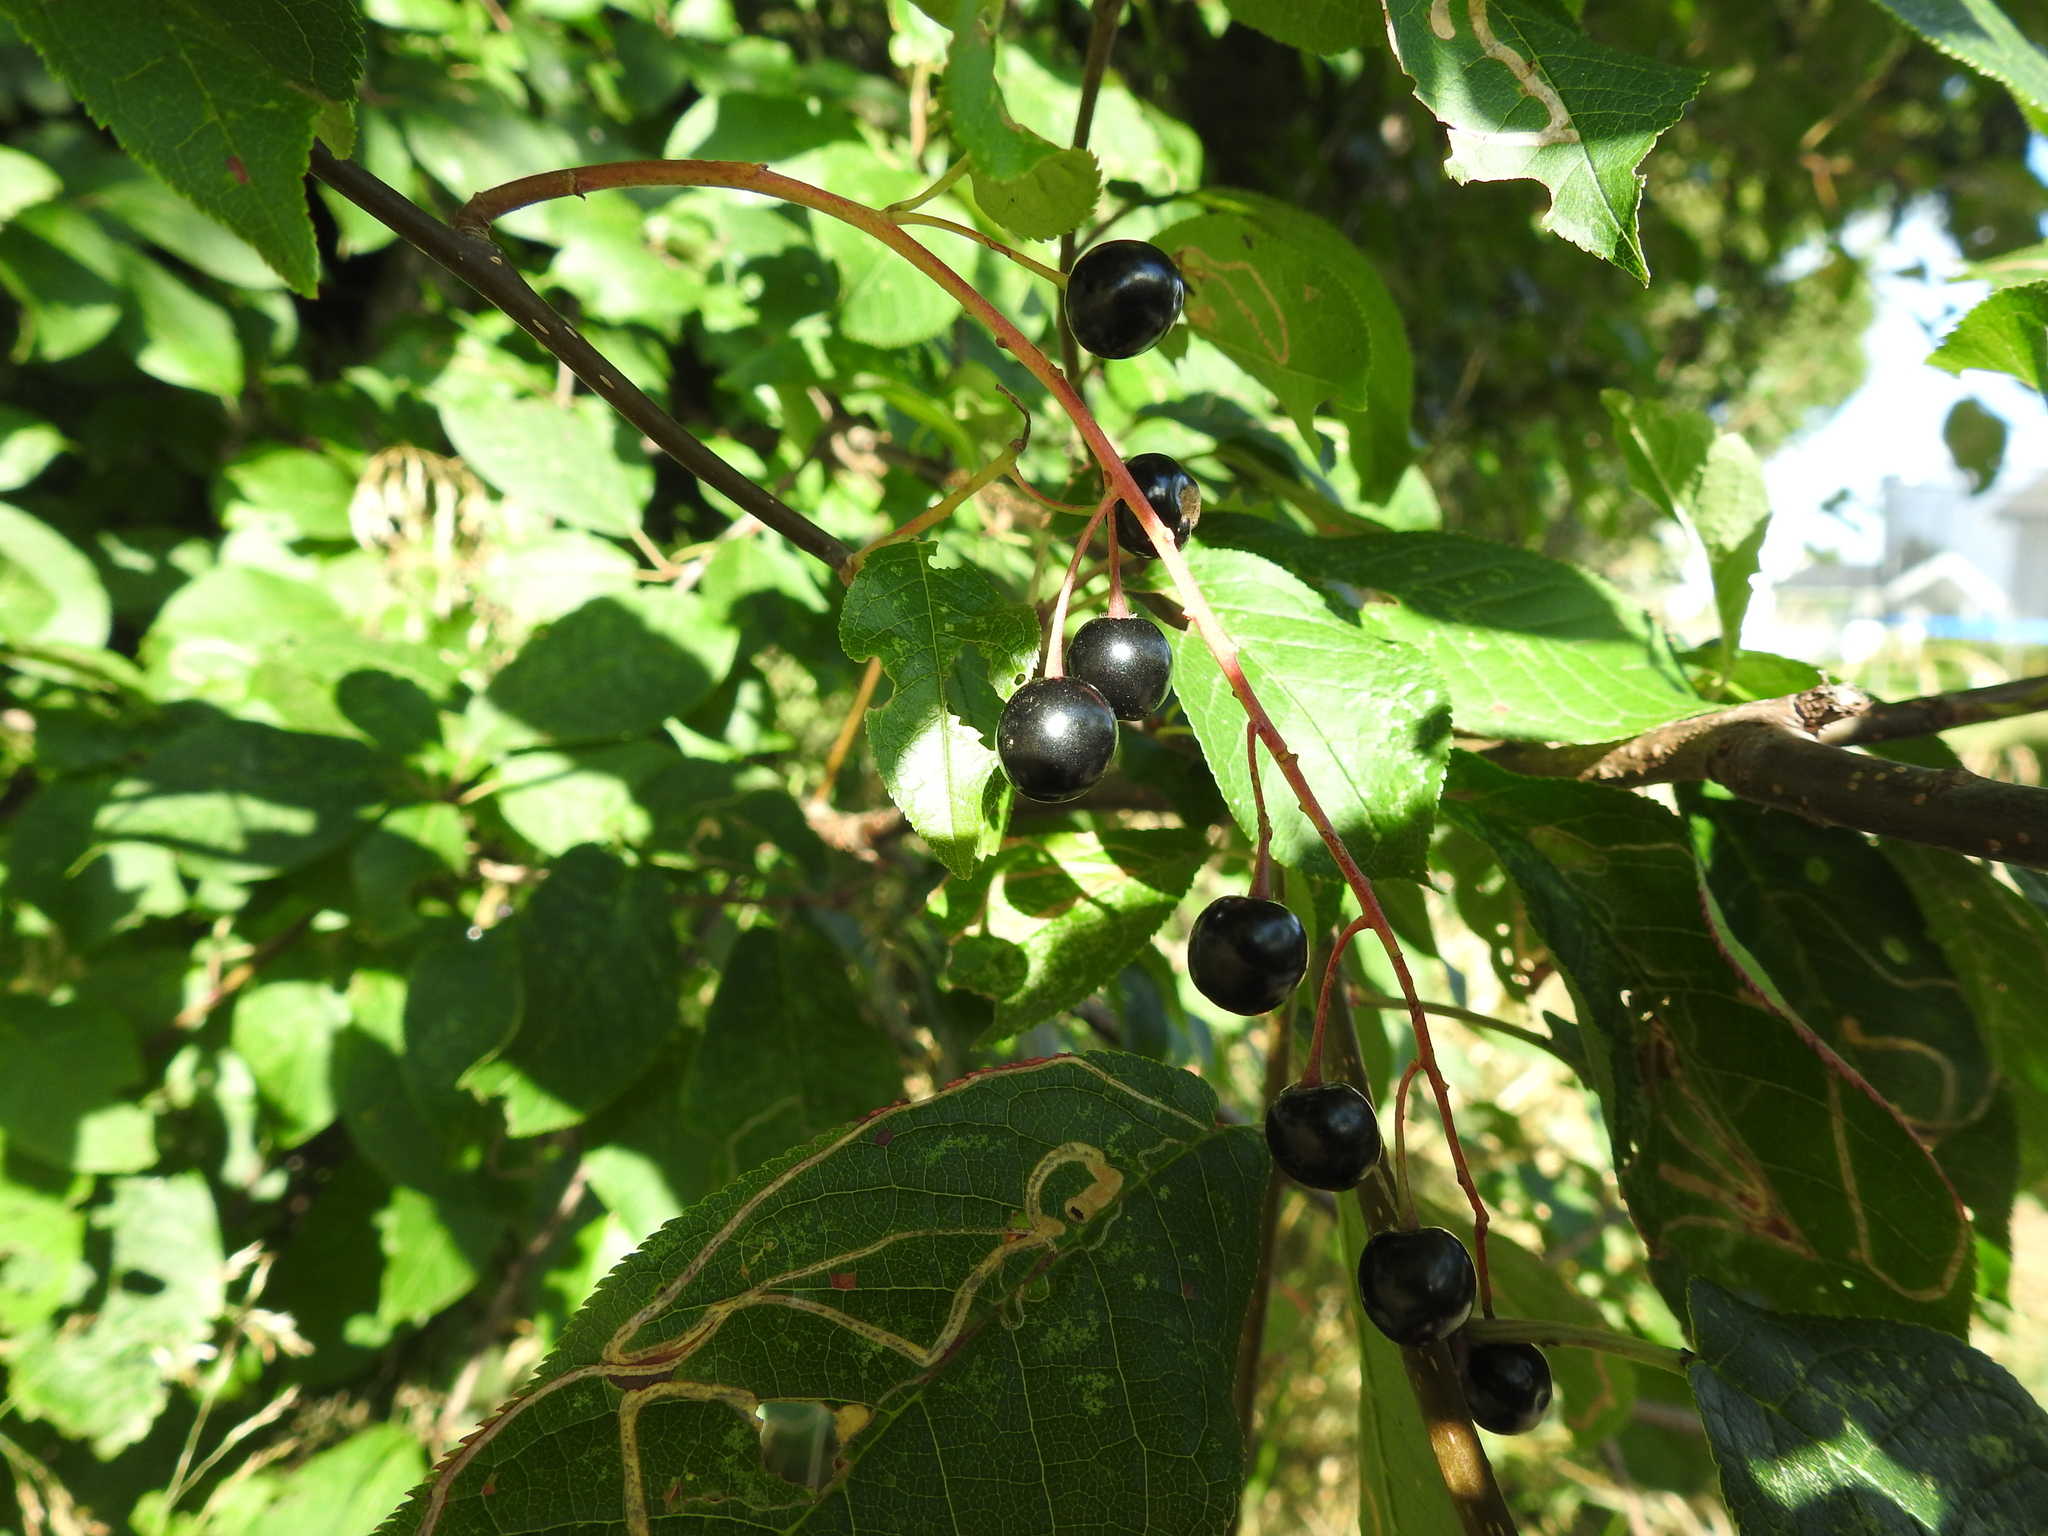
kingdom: Plantae
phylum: Tracheophyta
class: Magnoliopsida
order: Rosales
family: Rosaceae
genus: Prunus
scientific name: Prunus padus
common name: Bird cherry
